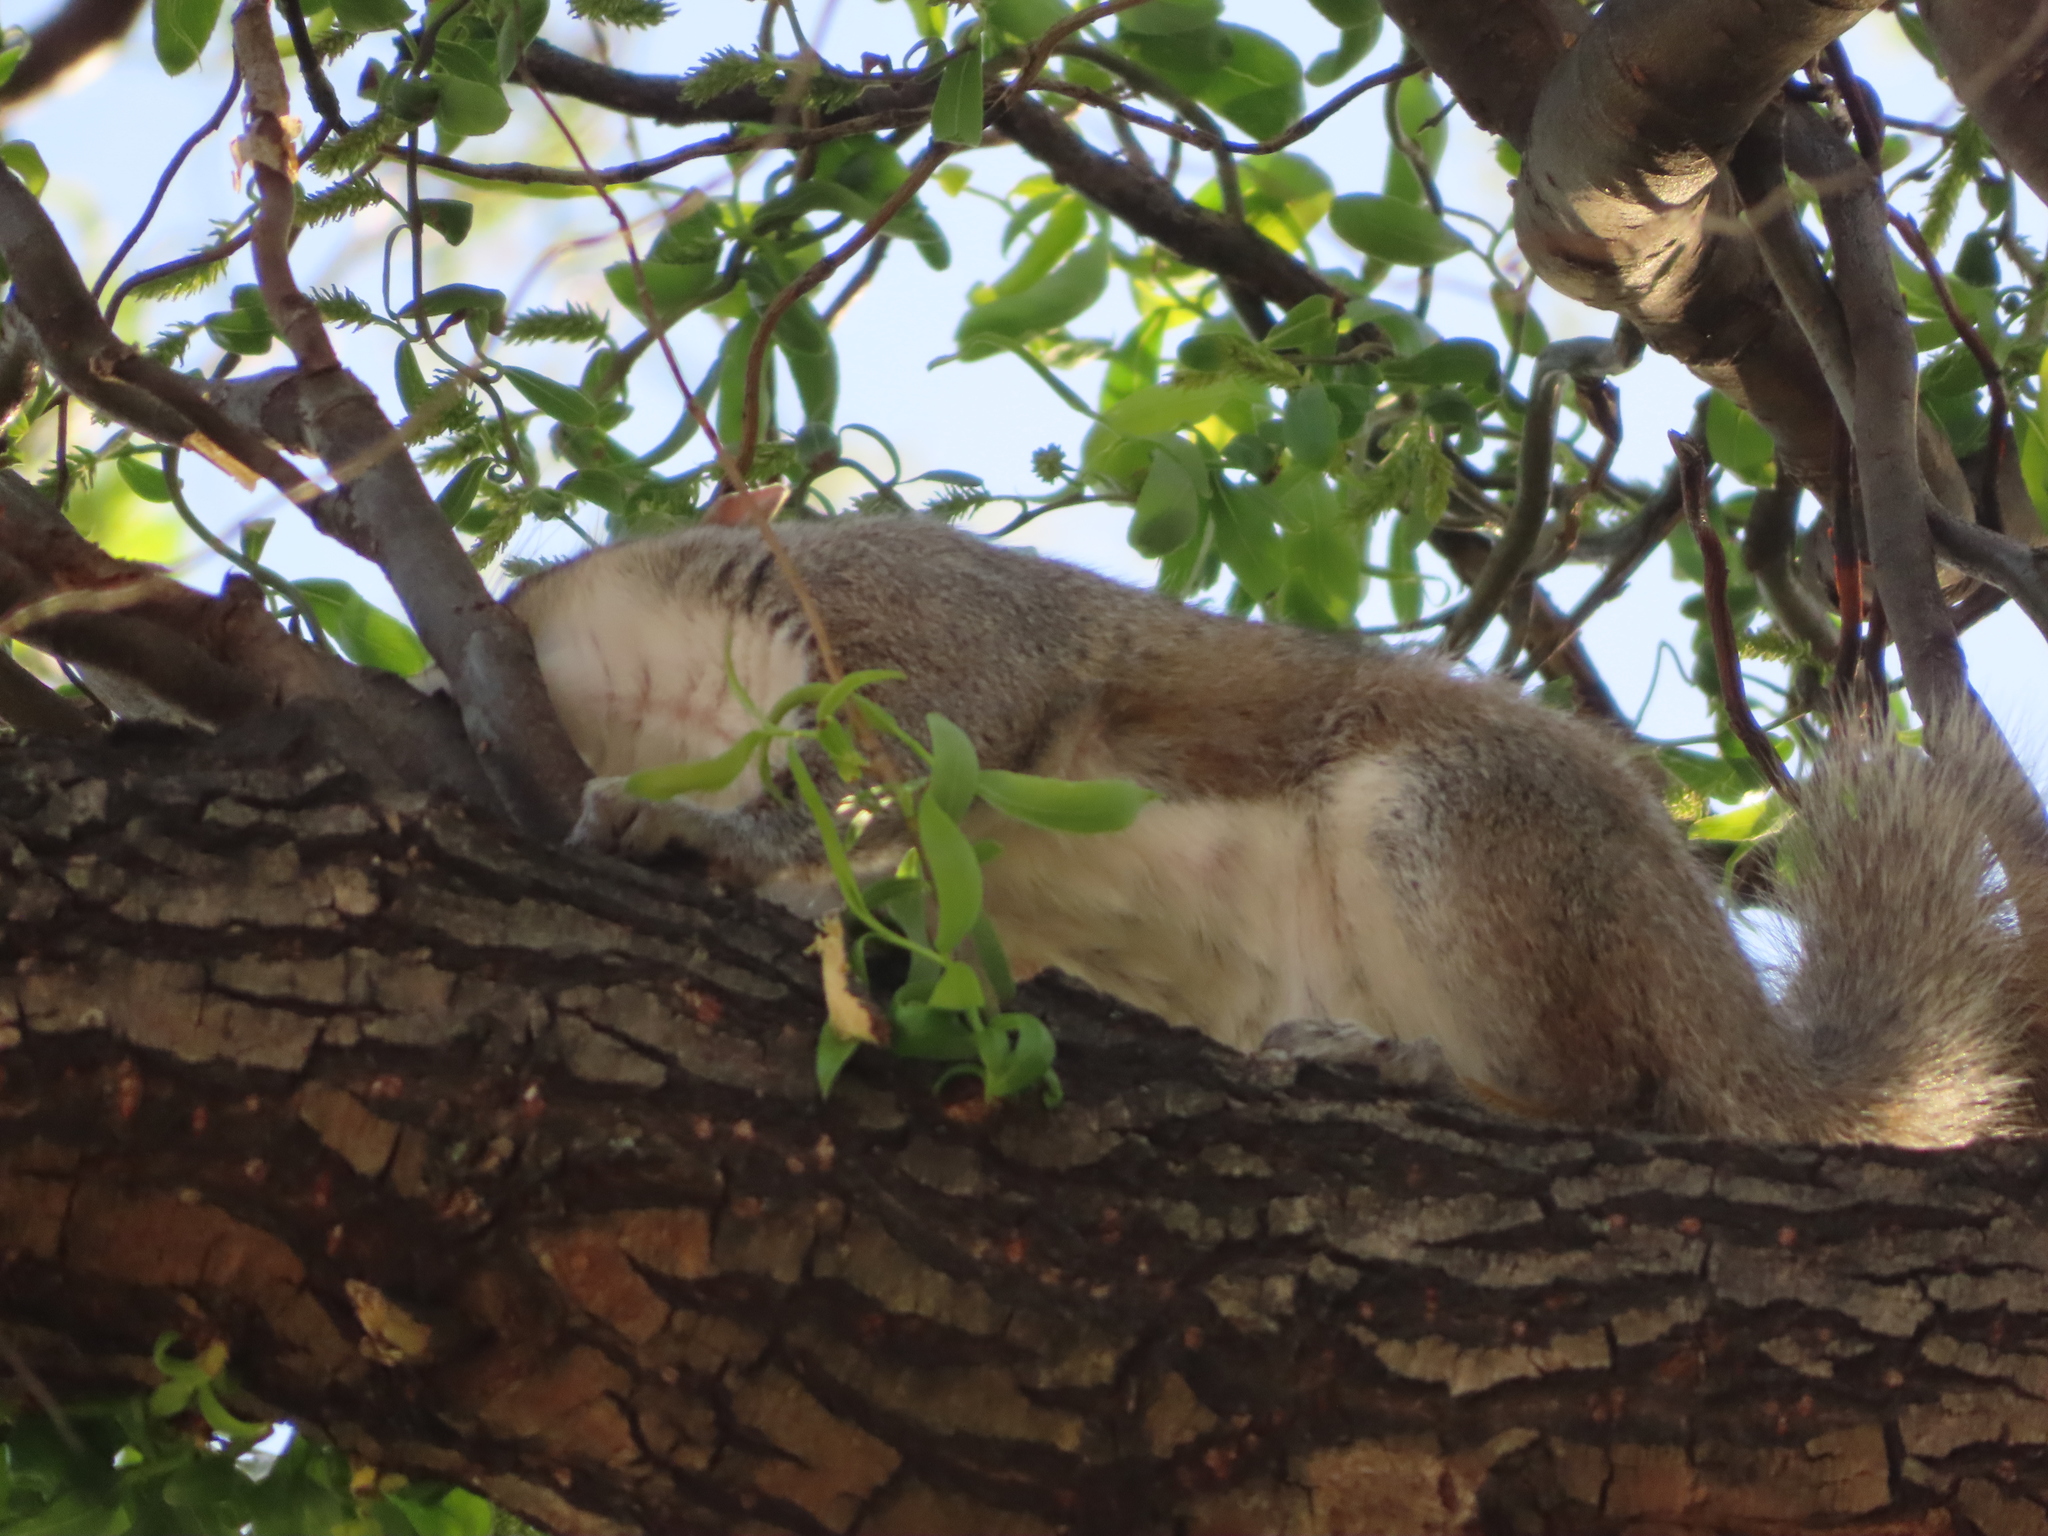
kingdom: Animalia
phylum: Chordata
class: Mammalia
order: Rodentia
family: Sciuridae
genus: Sciurus
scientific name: Sciurus carolinensis
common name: Eastern gray squirrel
